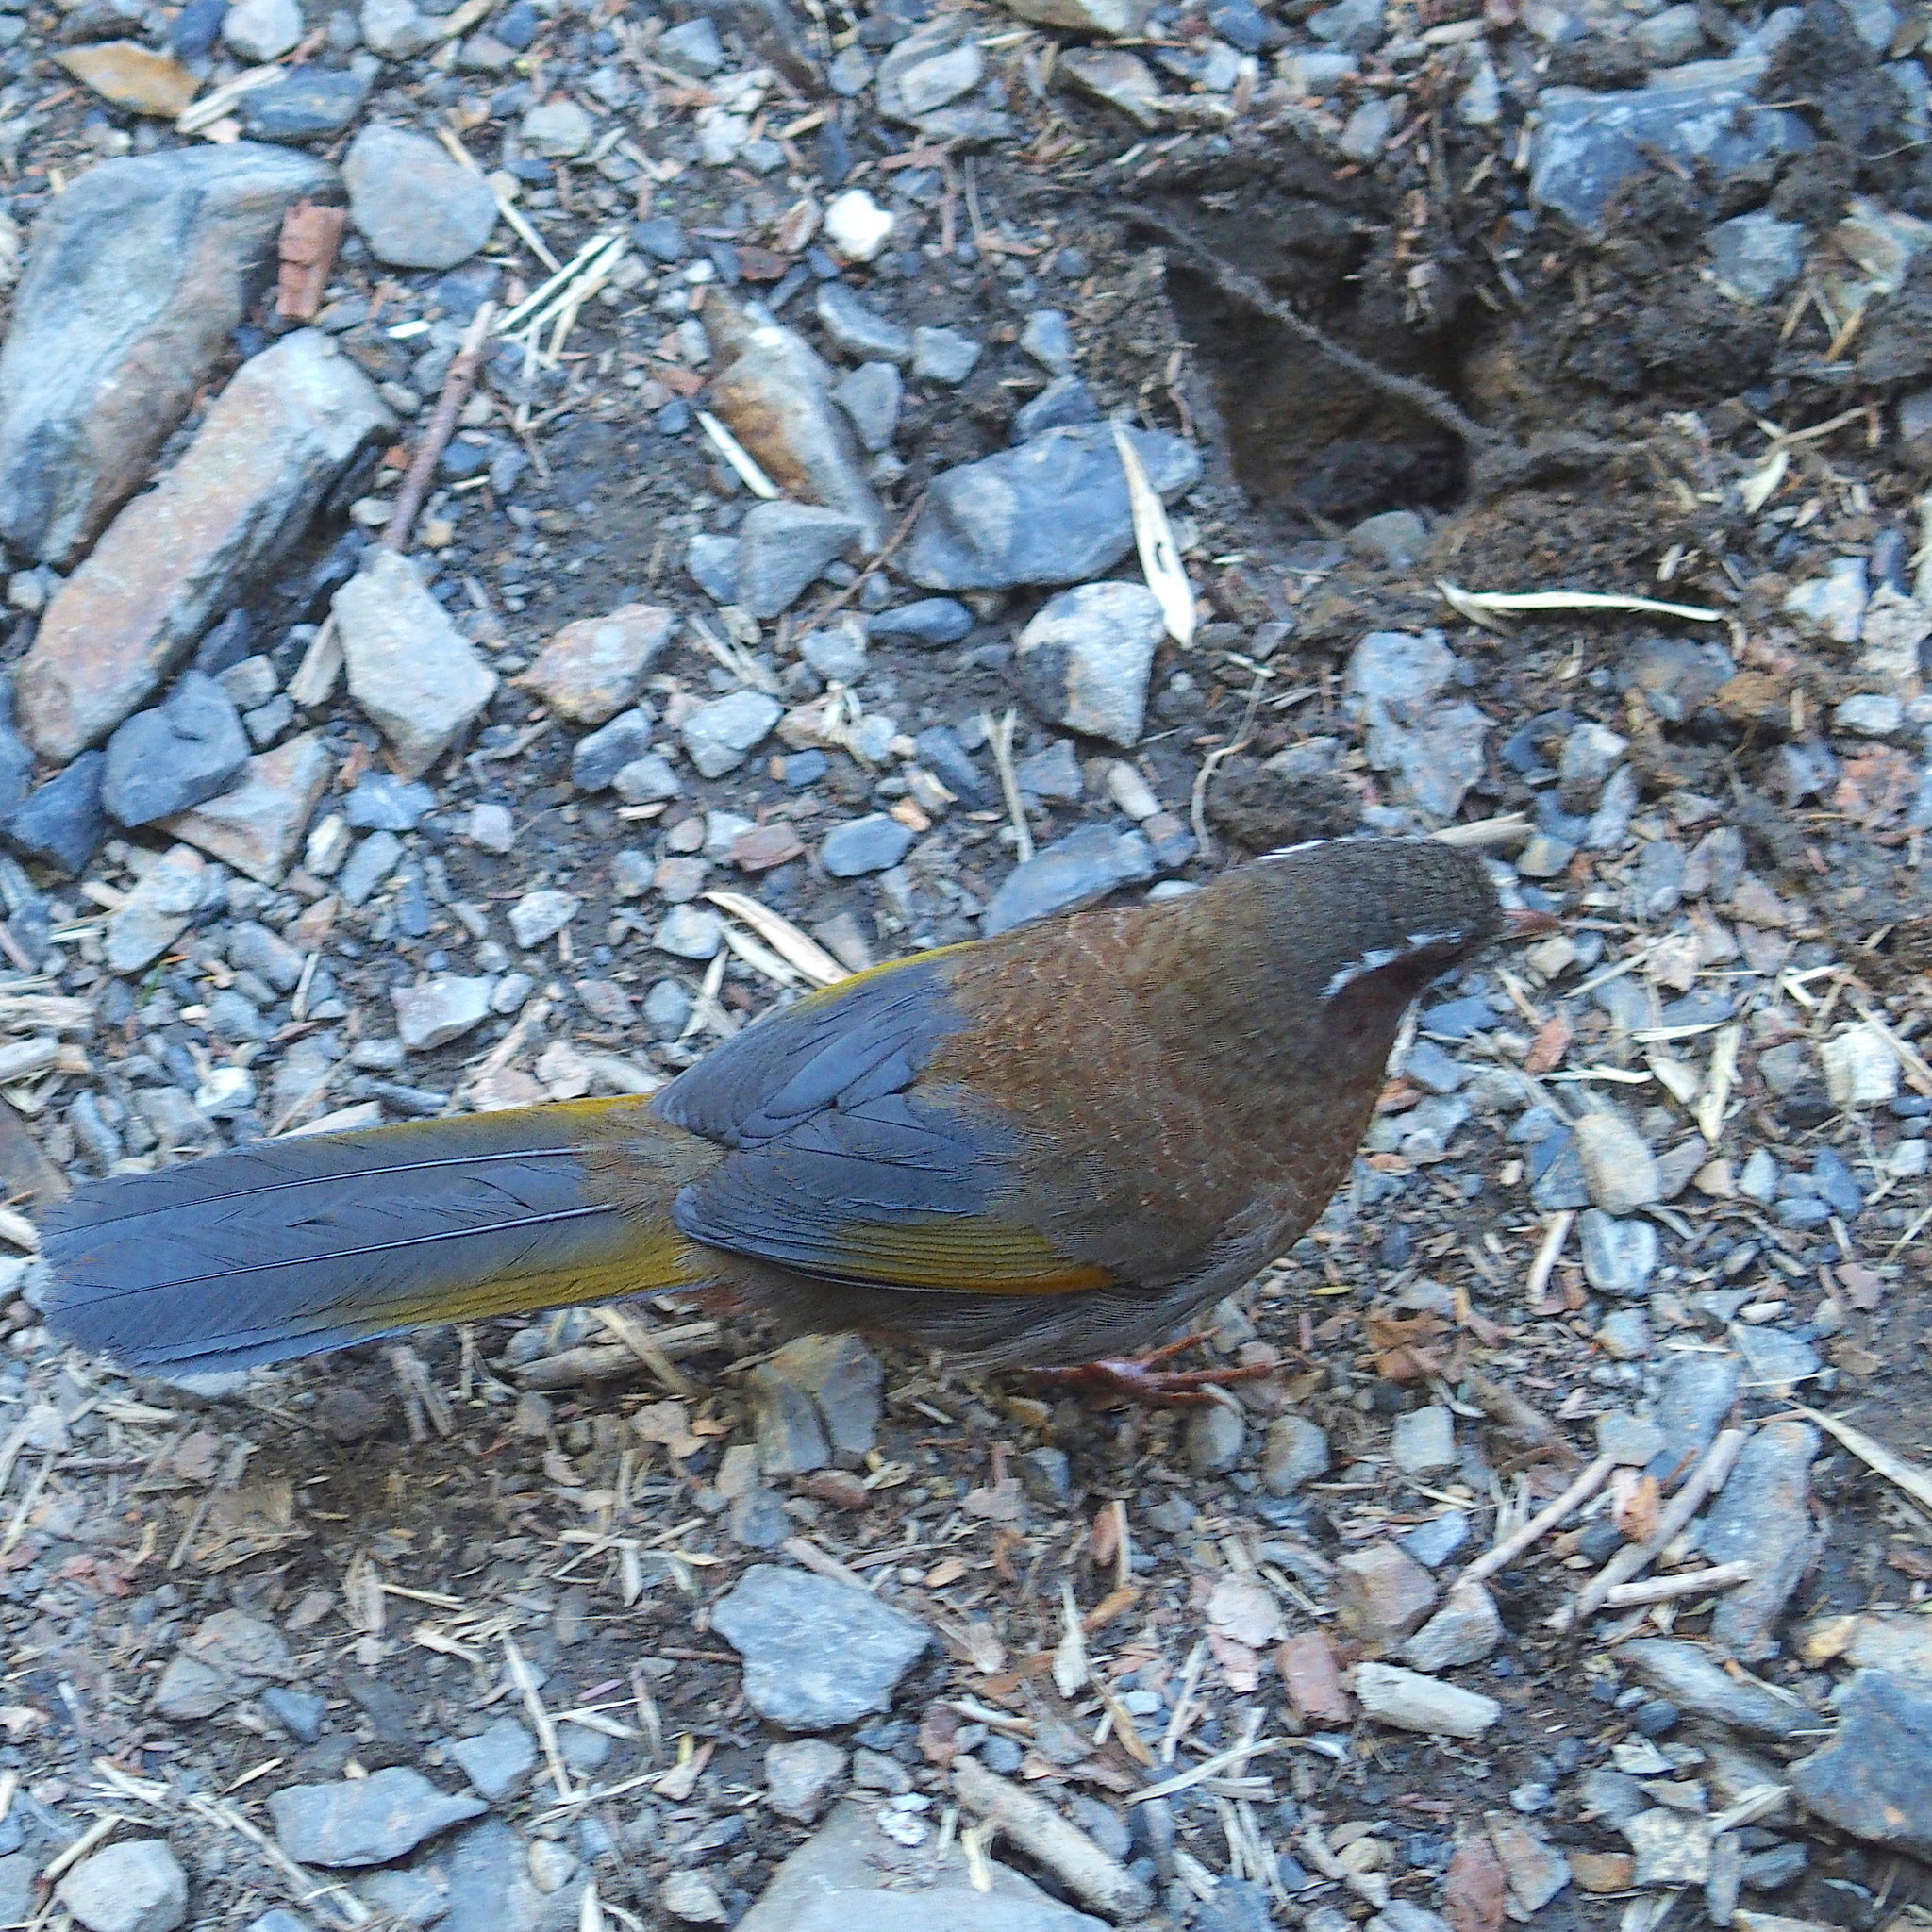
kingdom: Animalia
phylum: Chordata
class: Aves
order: Passeriformes
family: Leiothrichidae
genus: Trochalopteron
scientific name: Trochalopteron morrisonianum
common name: White-whiskered laughingthrush
